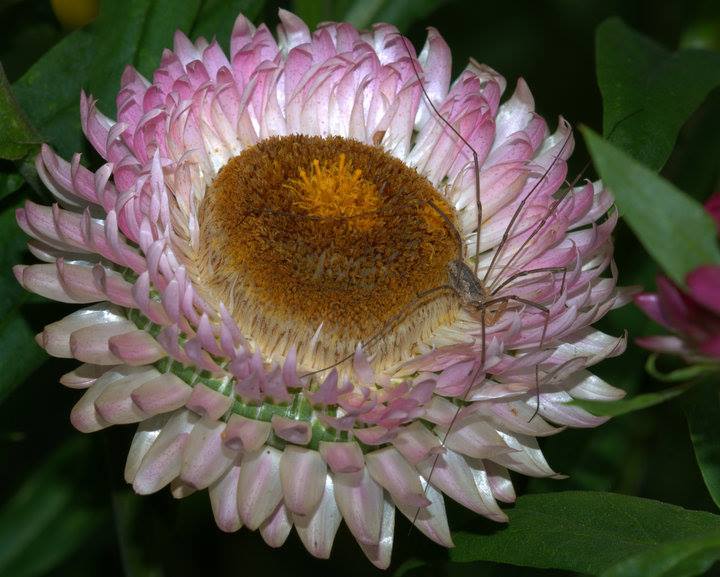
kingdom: Animalia
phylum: Arthropoda
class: Arachnida
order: Opiliones
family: Phalangiidae
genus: Phalangium
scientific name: Phalangium opilio
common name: Daddy longleg
